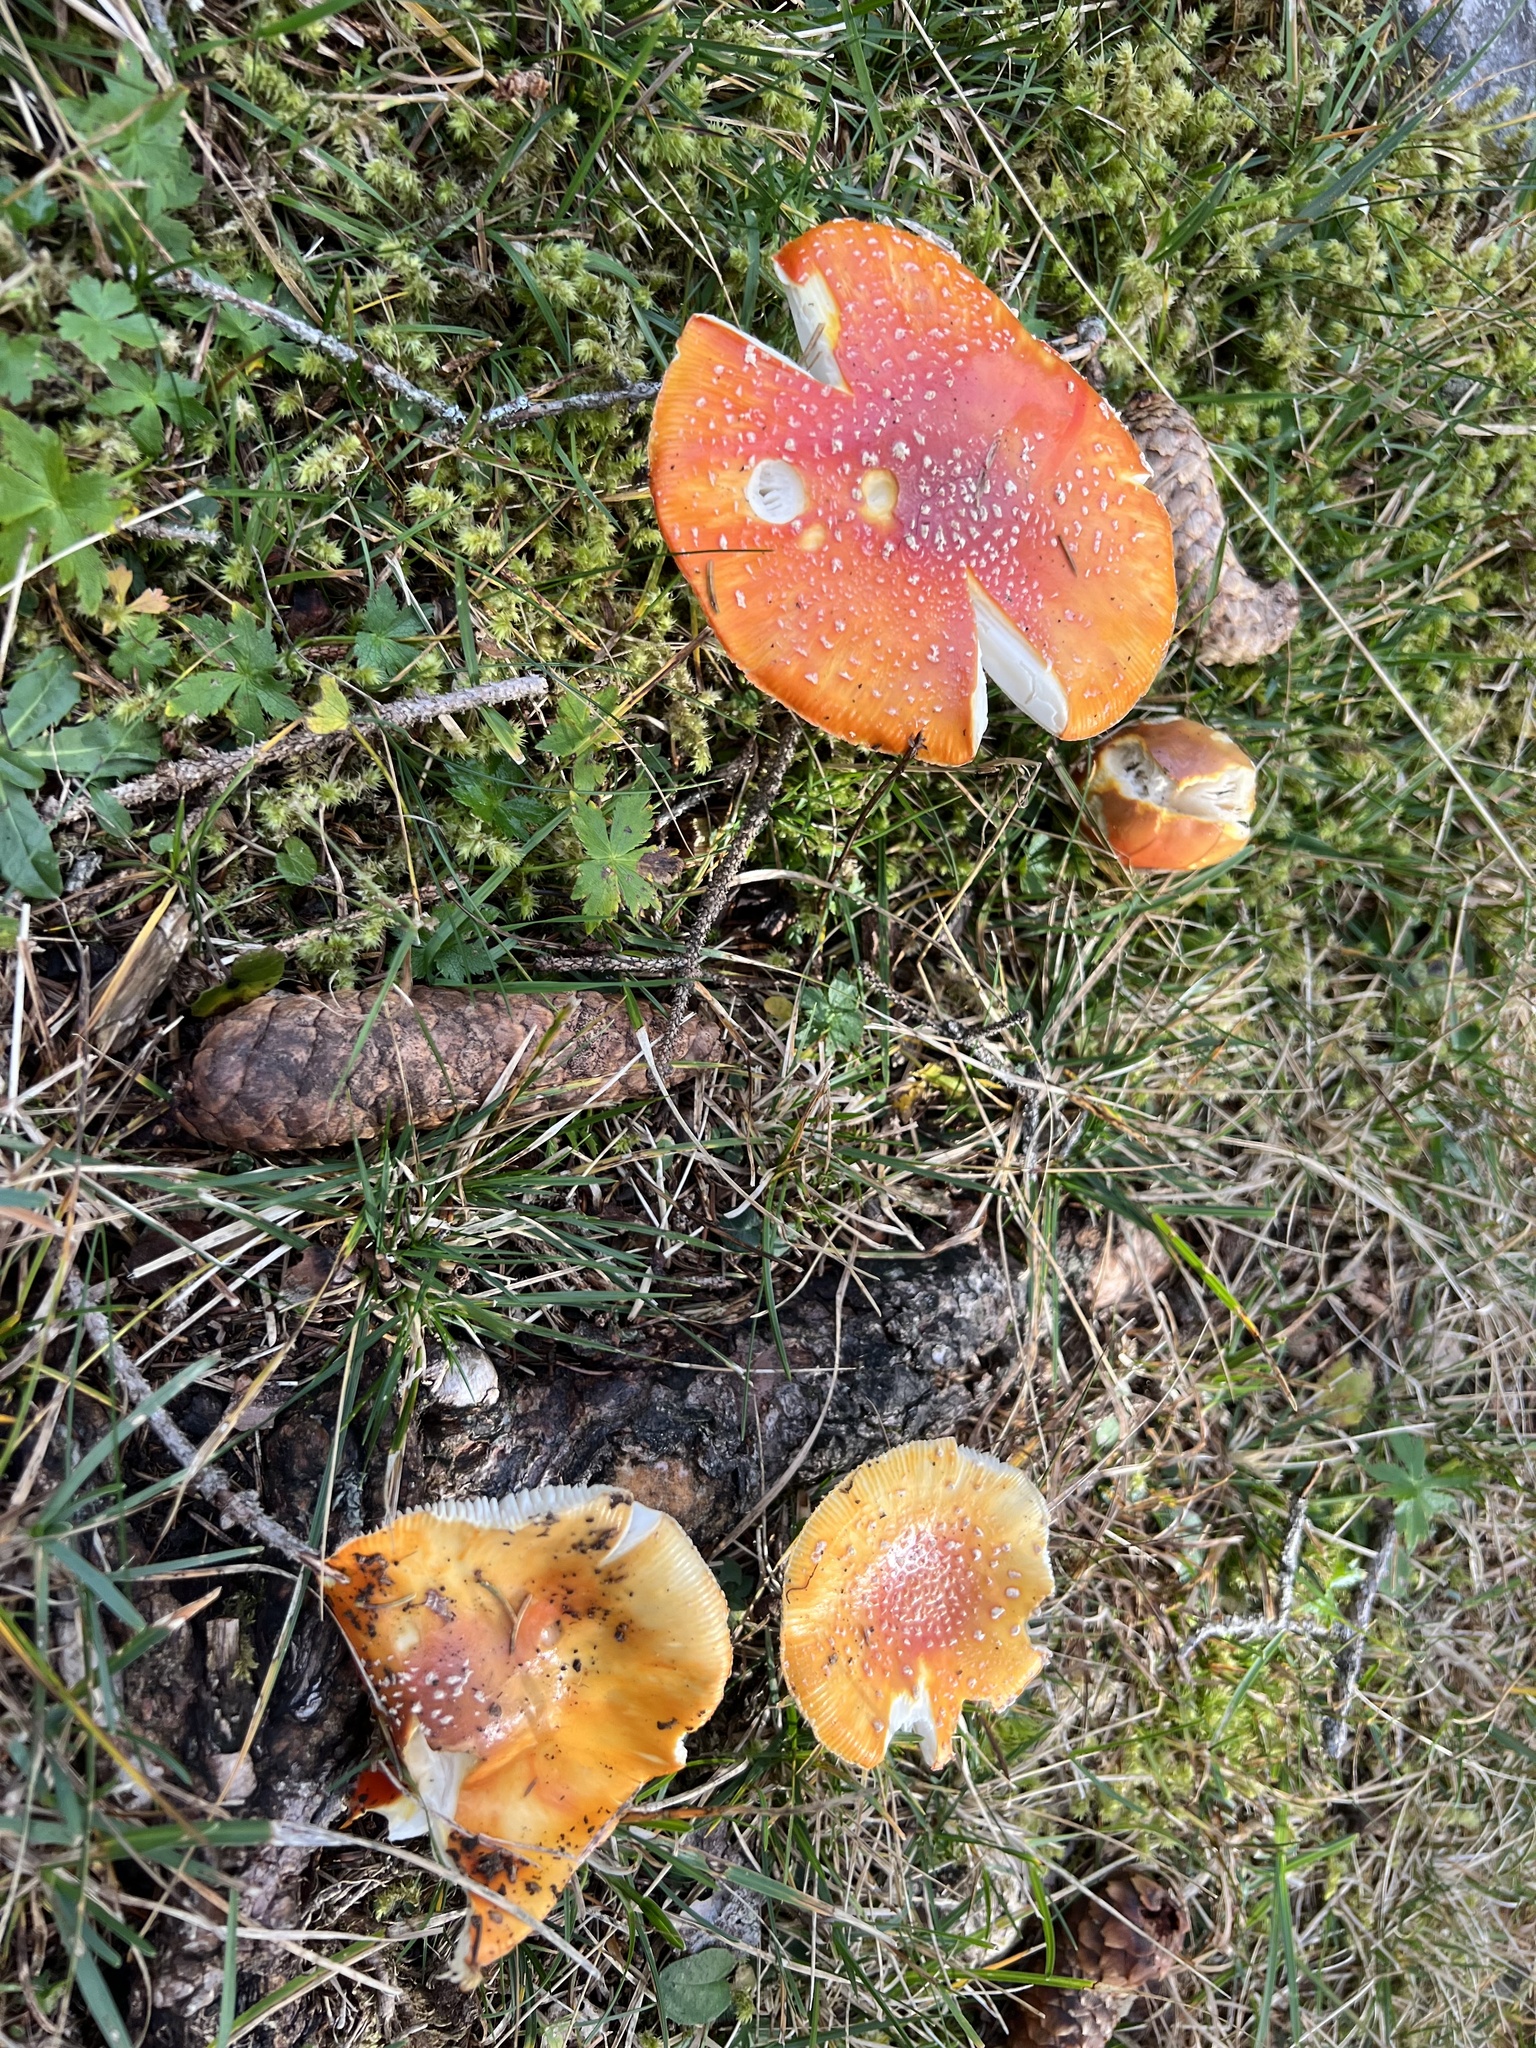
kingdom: Fungi
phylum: Basidiomycota
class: Agaricomycetes
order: Agaricales
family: Amanitaceae
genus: Amanita
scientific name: Amanita muscaria
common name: Fly agaric
